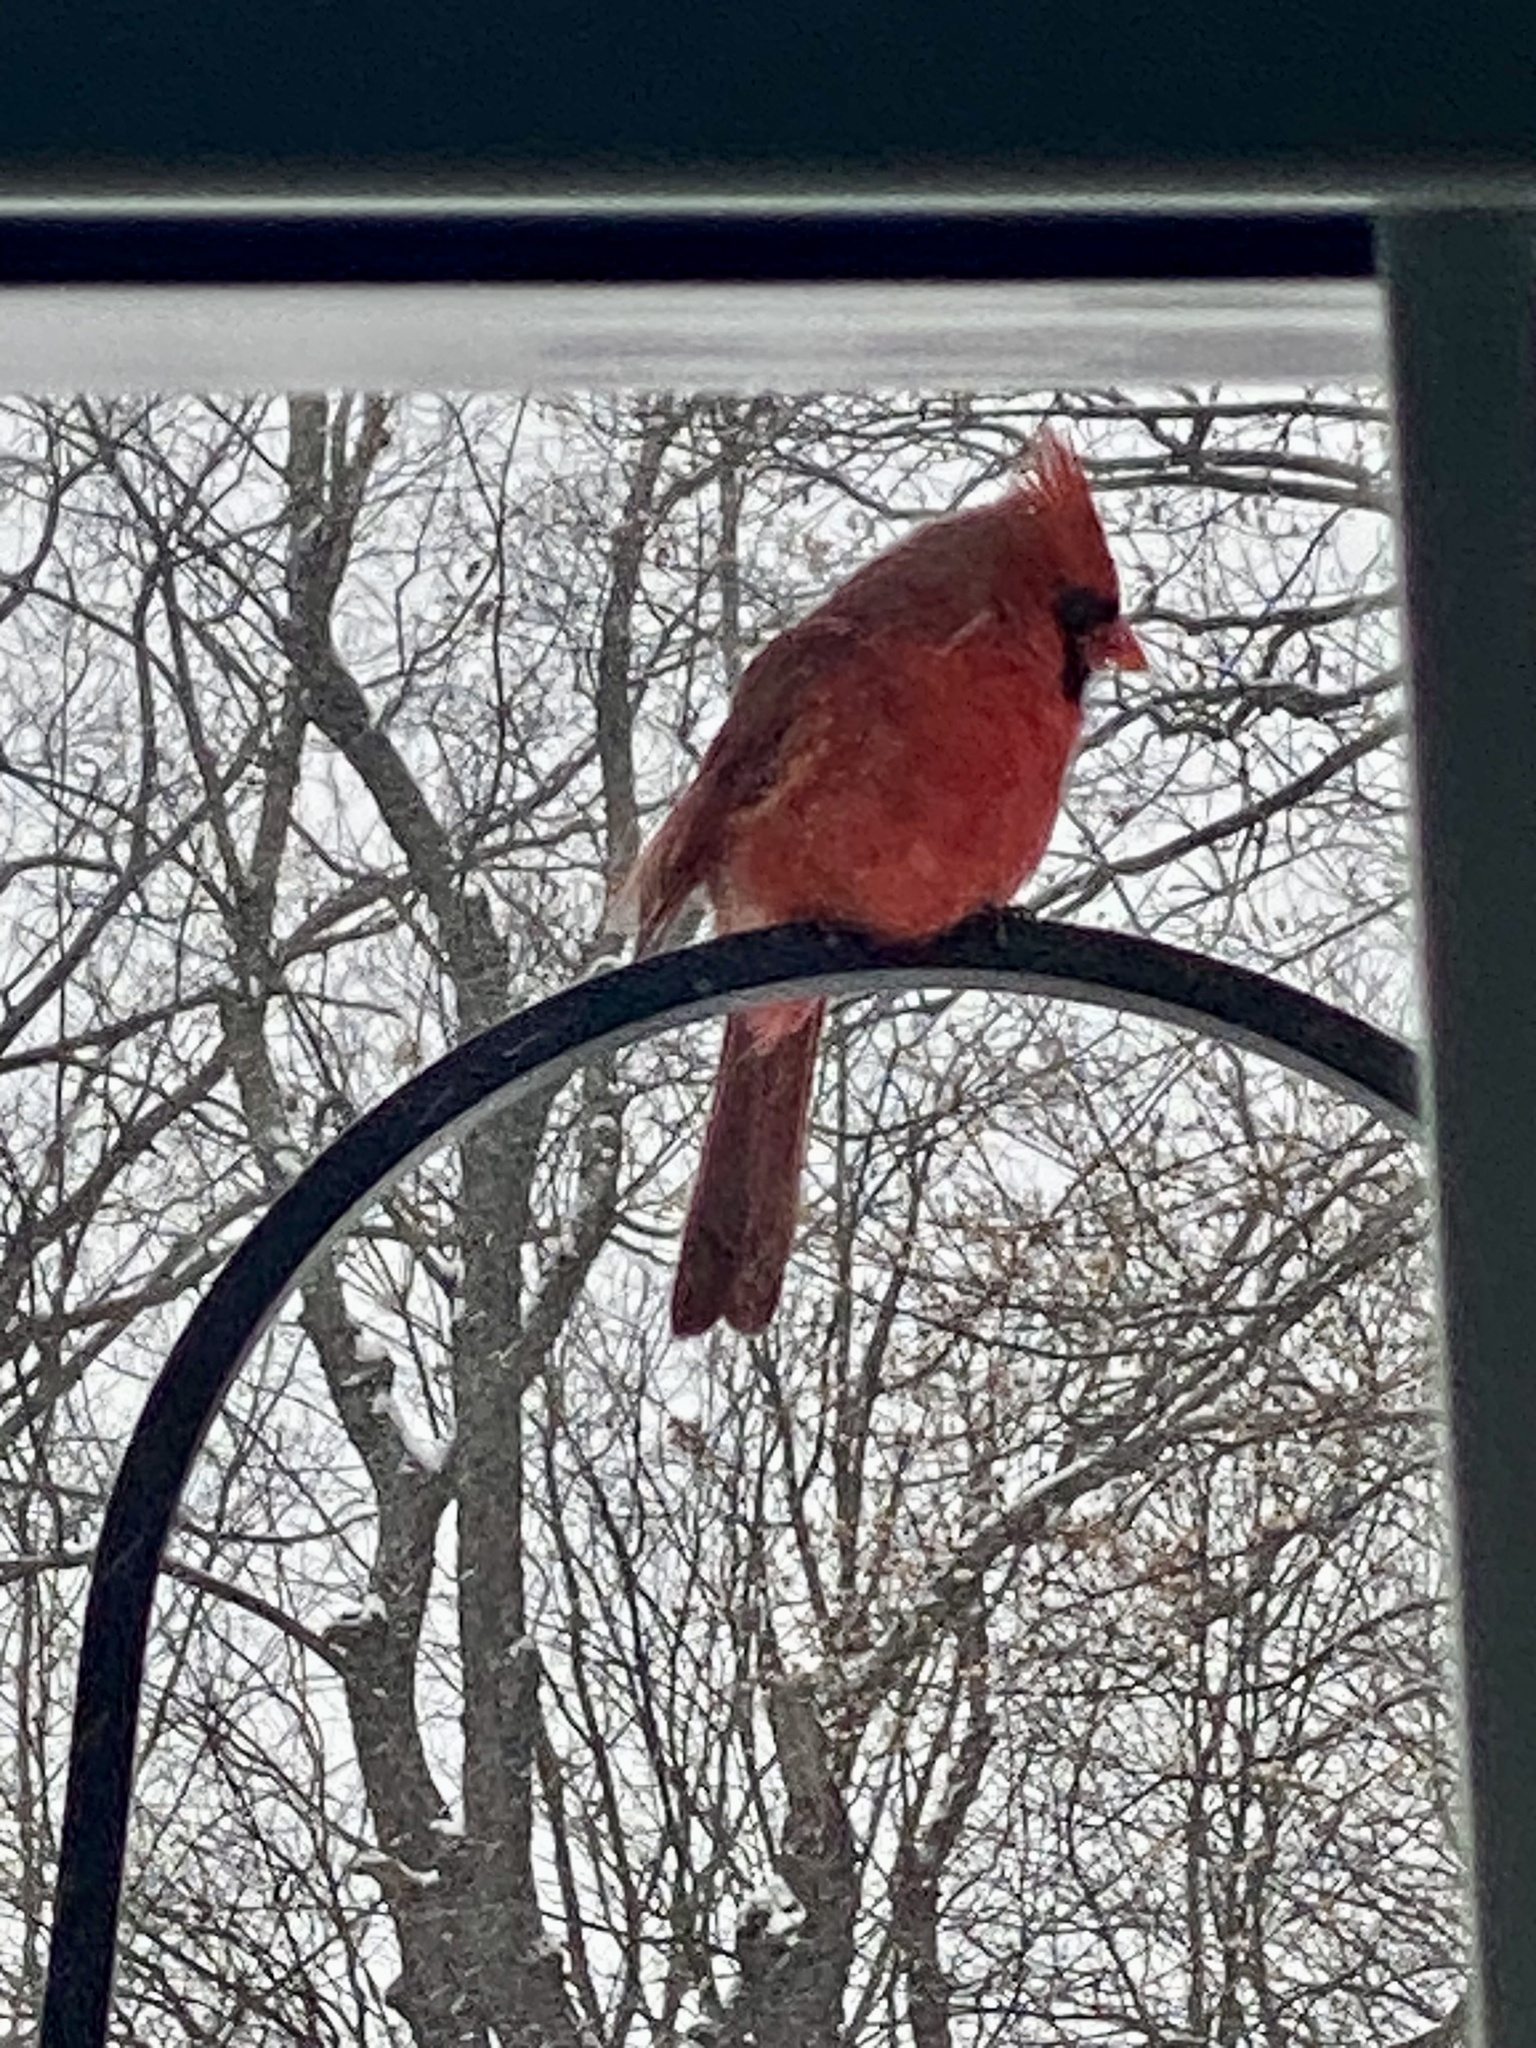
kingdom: Animalia
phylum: Chordata
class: Aves
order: Passeriformes
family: Cardinalidae
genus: Cardinalis
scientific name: Cardinalis cardinalis
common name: Northern cardinal
